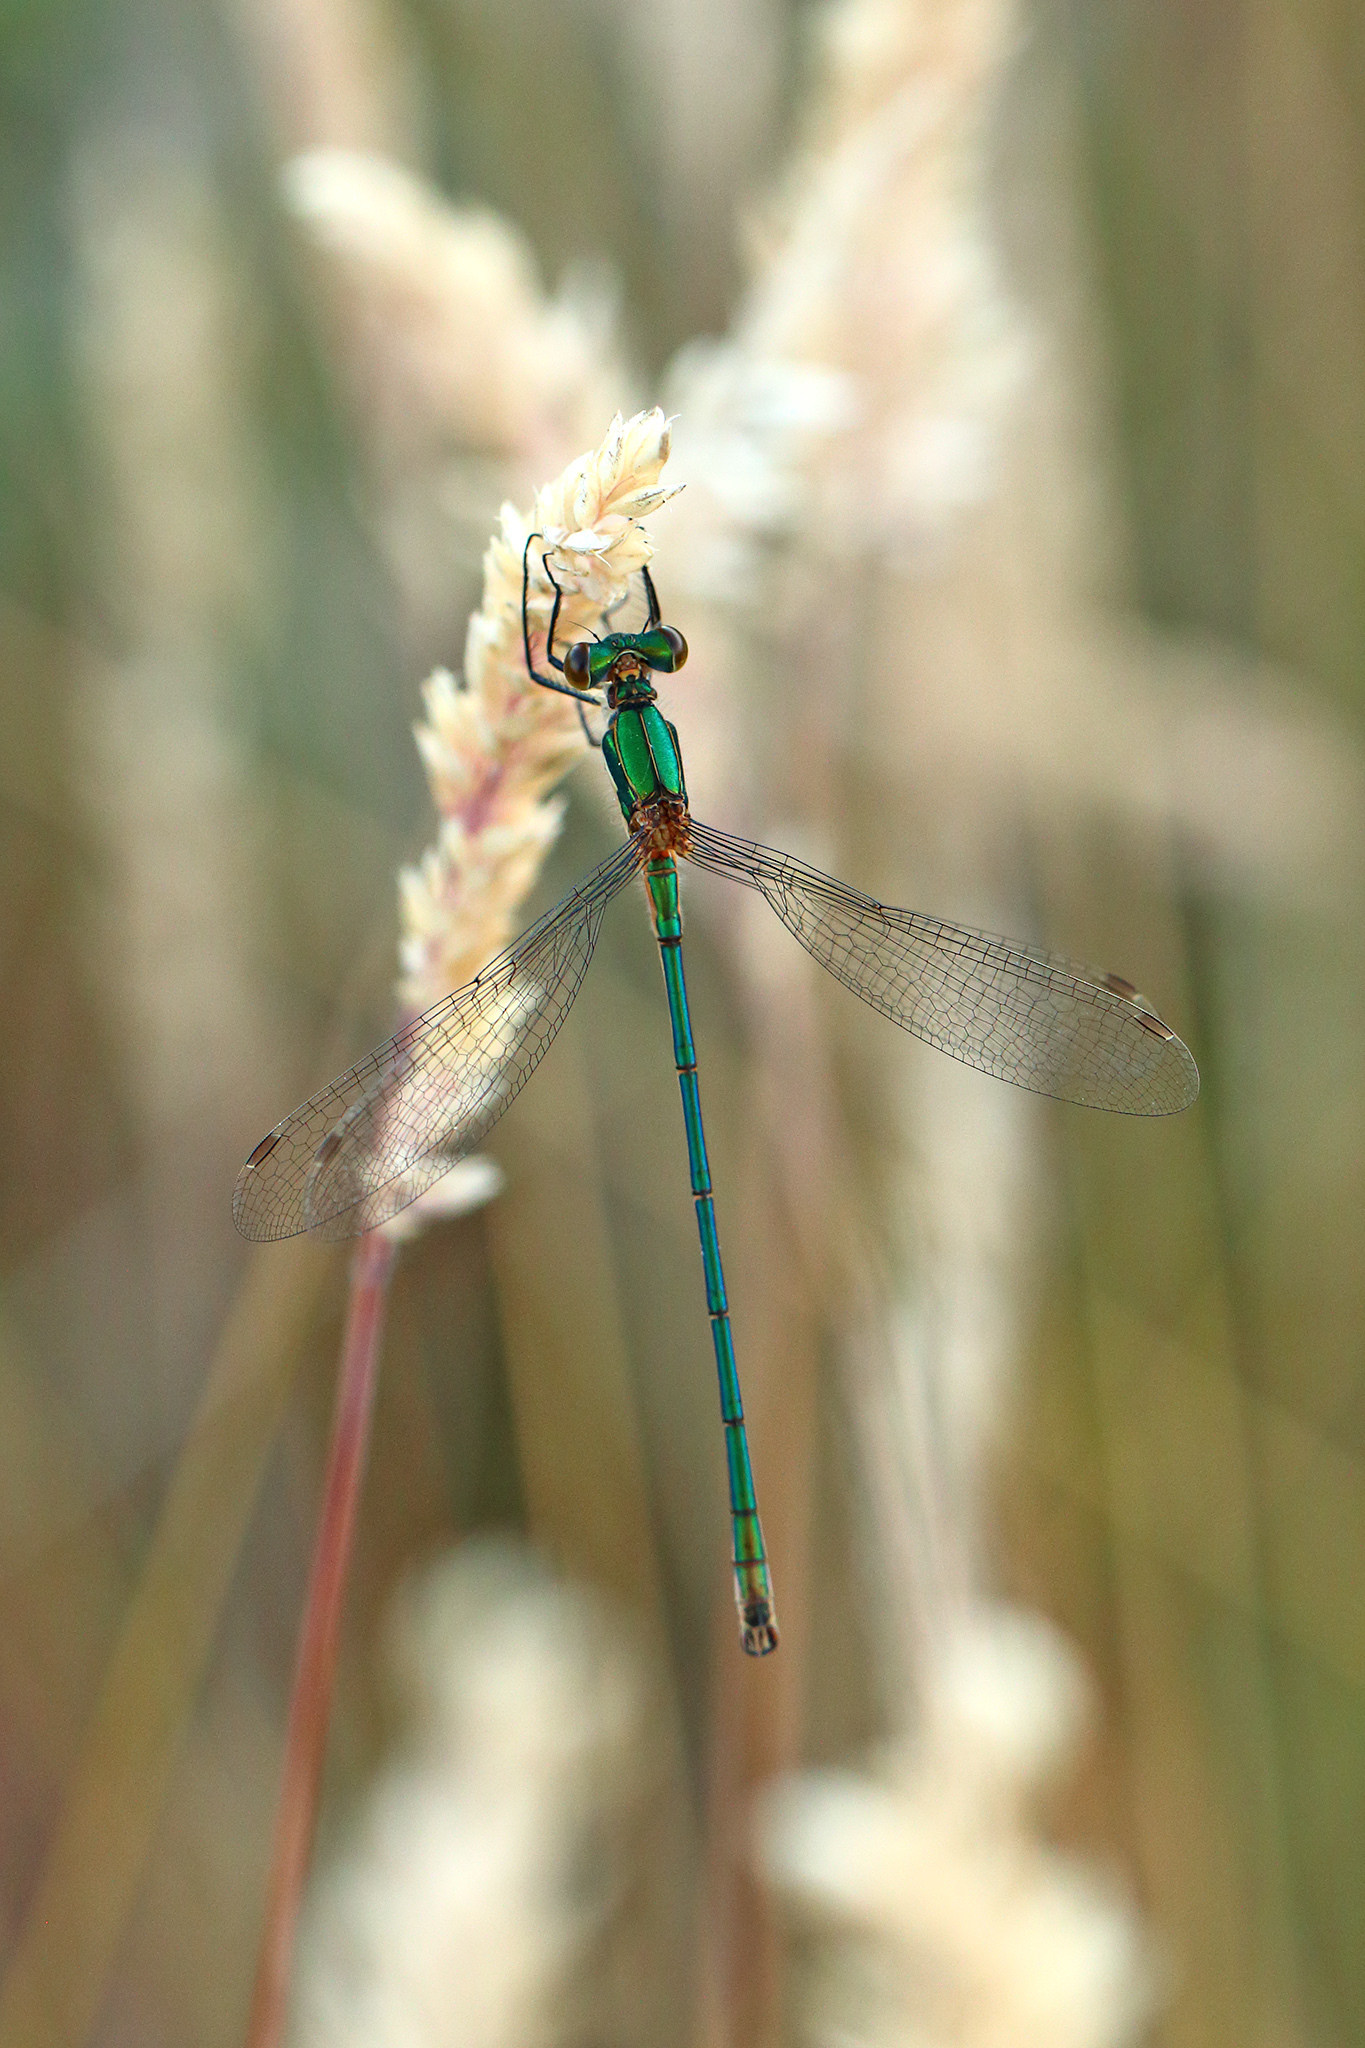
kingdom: Animalia
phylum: Arthropoda
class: Insecta
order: Odonata
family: Lestidae
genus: Lestes
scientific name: Lestes sponsa
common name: Common spreadwing
